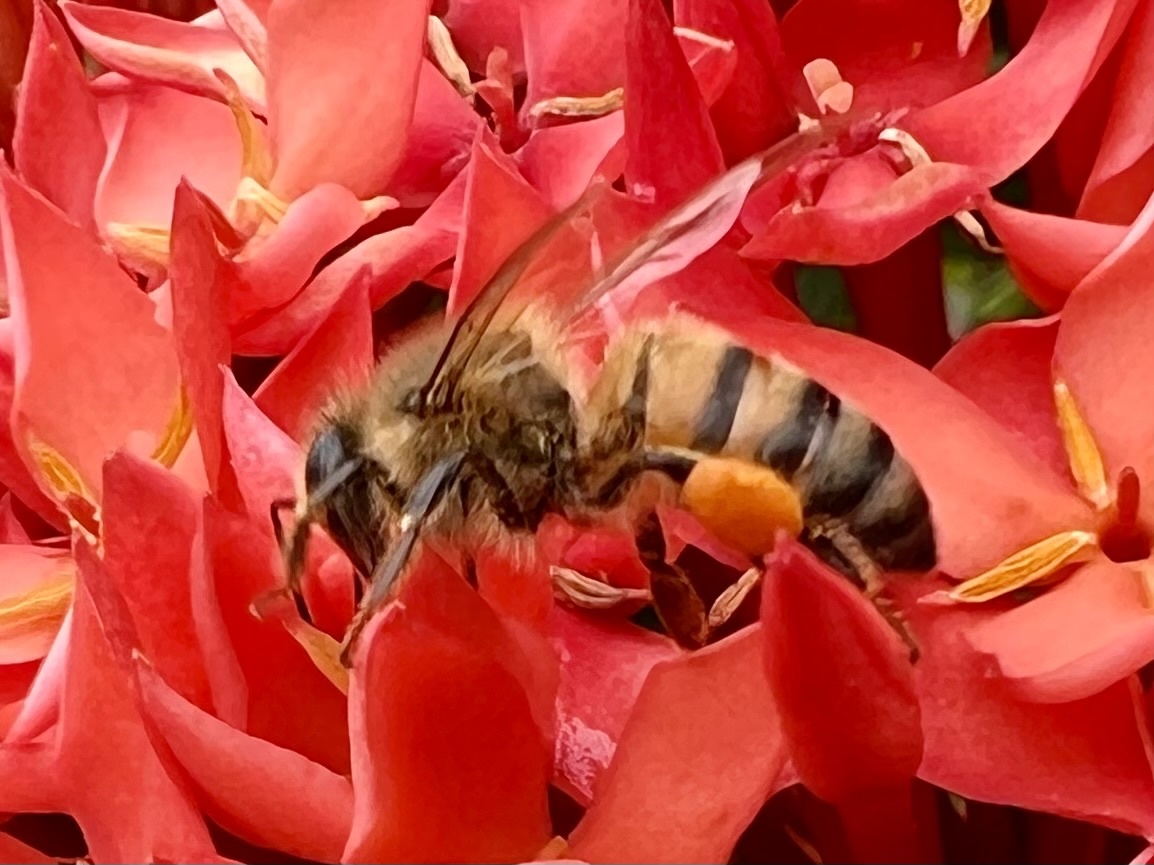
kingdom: Animalia
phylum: Arthropoda
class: Insecta
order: Hymenoptera
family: Apidae
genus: Apis
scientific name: Apis mellifera
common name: Honey bee
